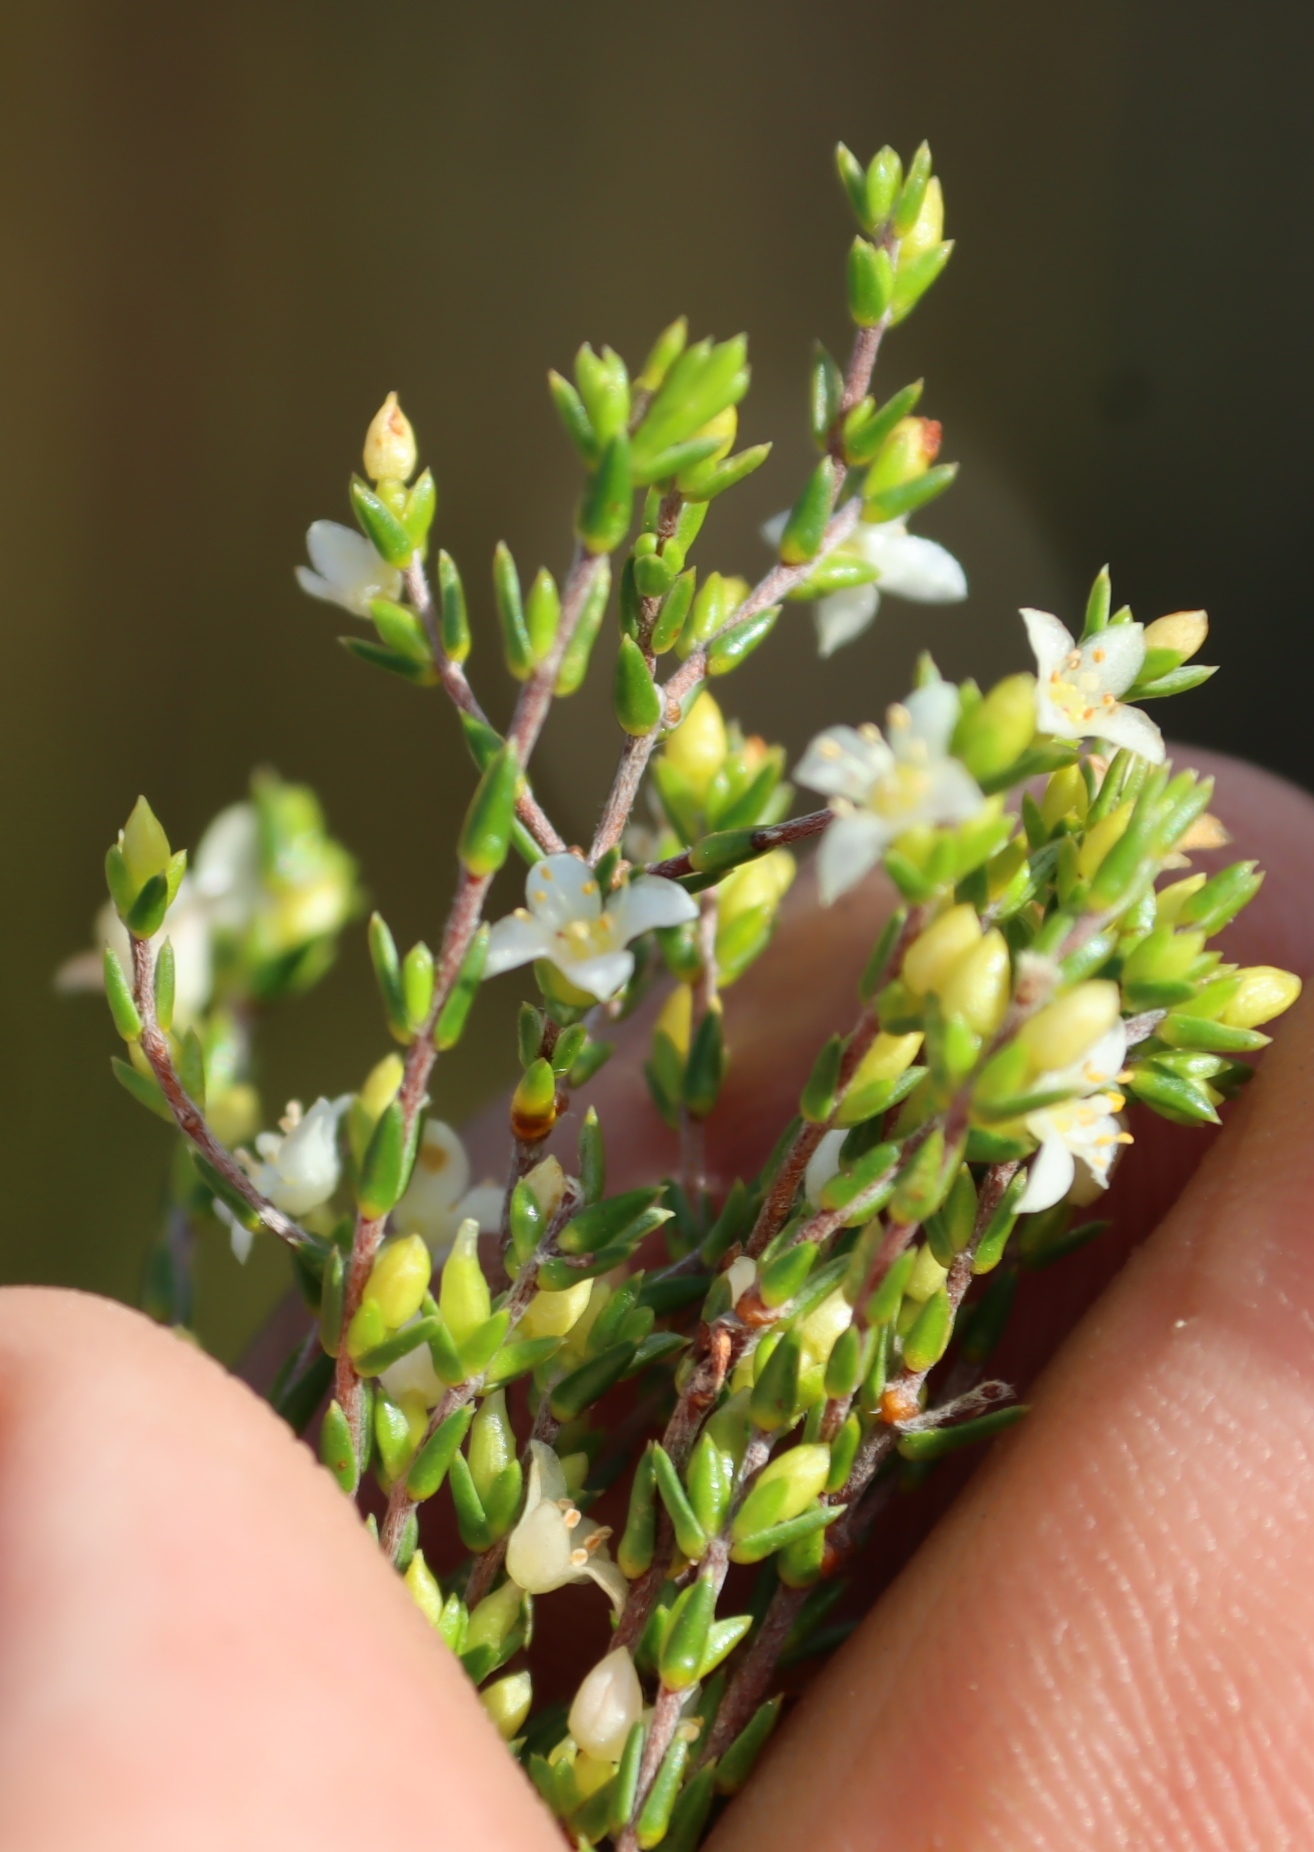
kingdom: Plantae
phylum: Tracheophyta
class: Magnoliopsida
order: Malvales
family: Thymelaeaceae
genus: Lachnaea
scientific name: Lachnaea axillaris
